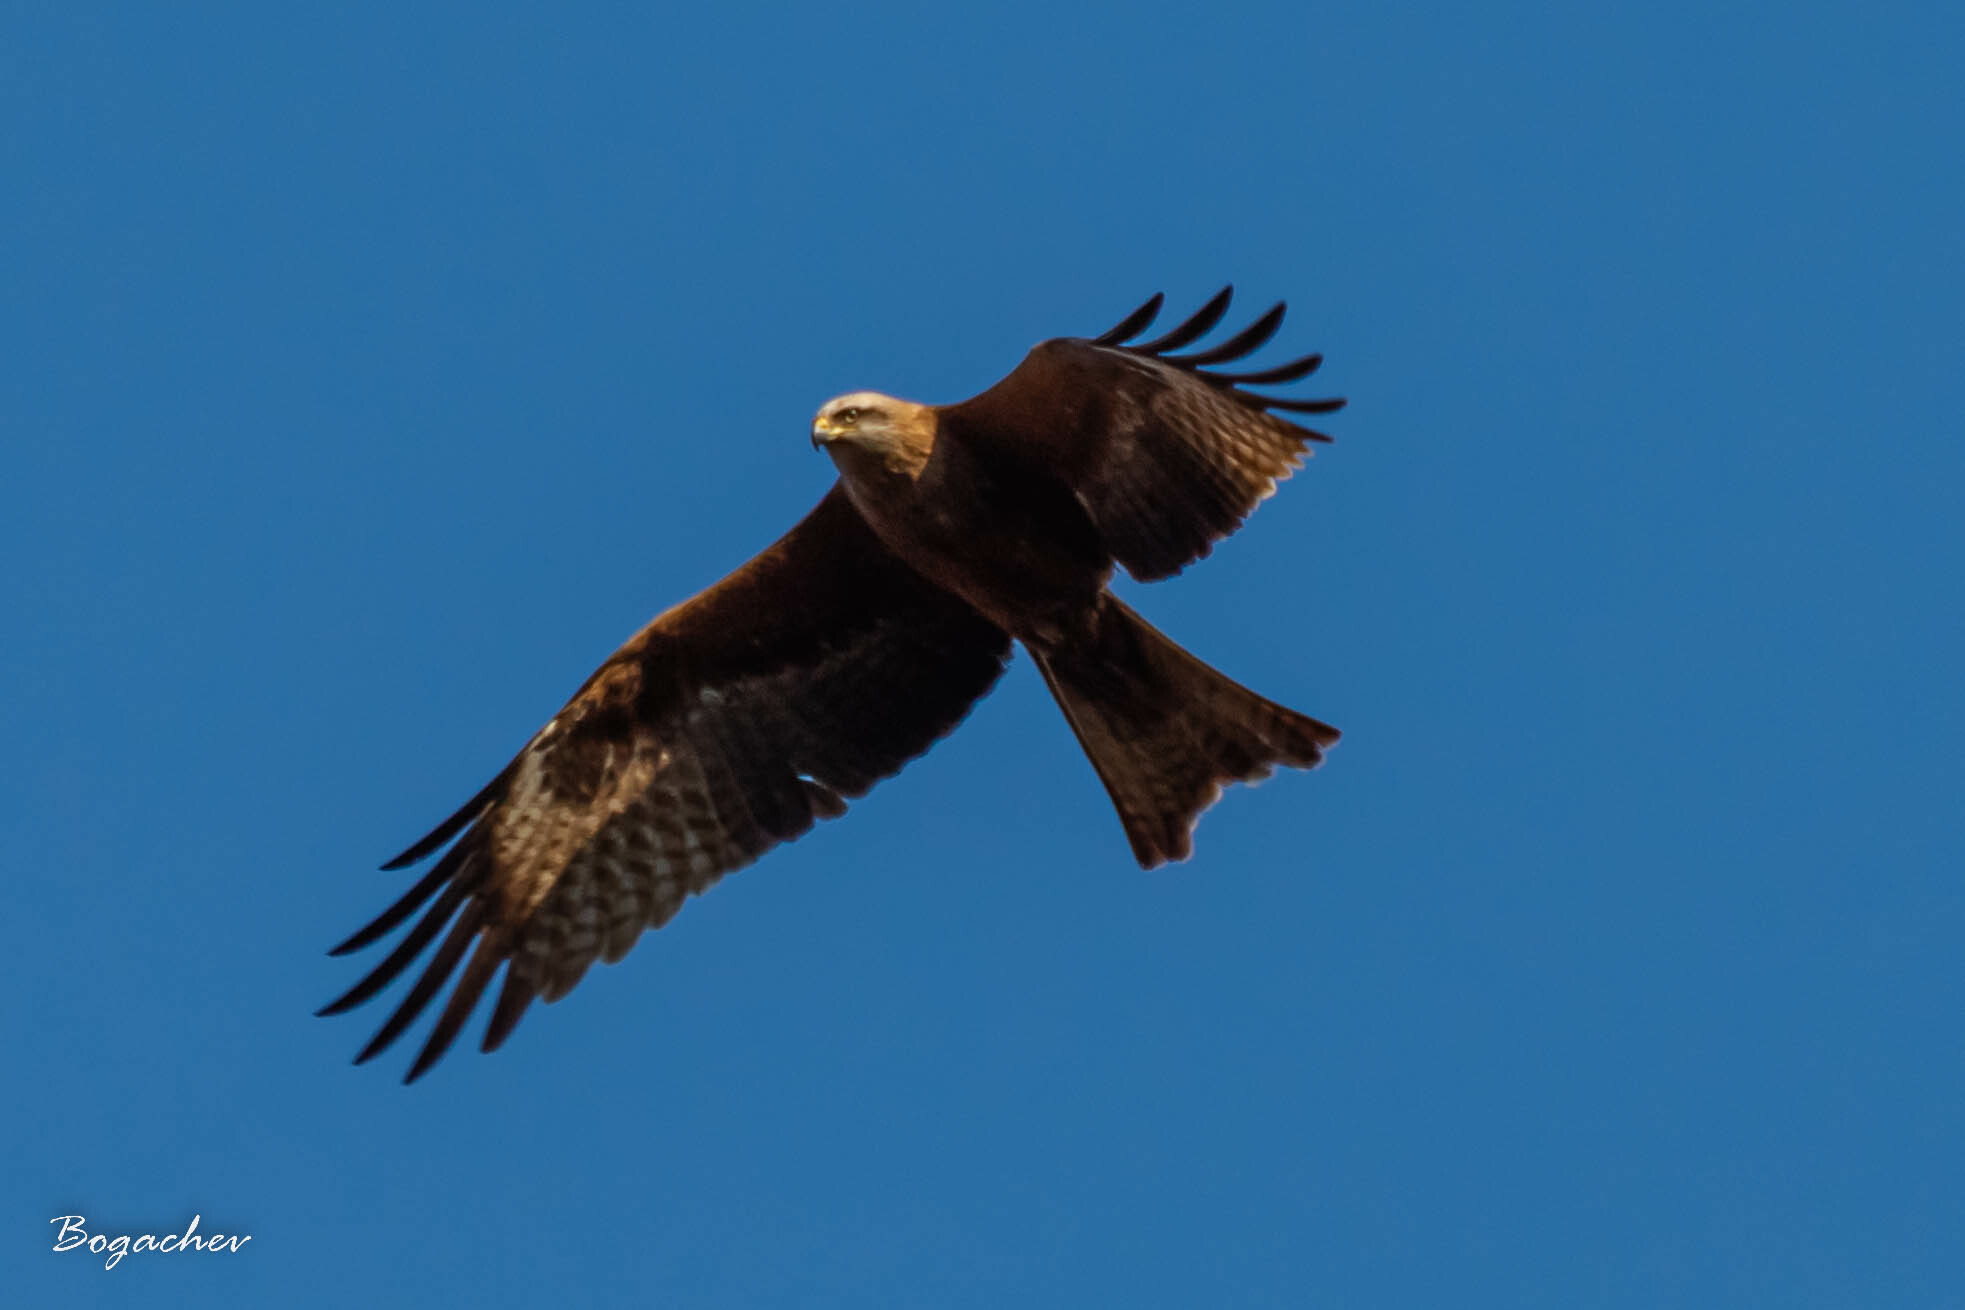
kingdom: Animalia
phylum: Chordata
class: Aves
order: Accipitriformes
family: Accipitridae
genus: Milvus
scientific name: Milvus migrans
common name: Black kite
